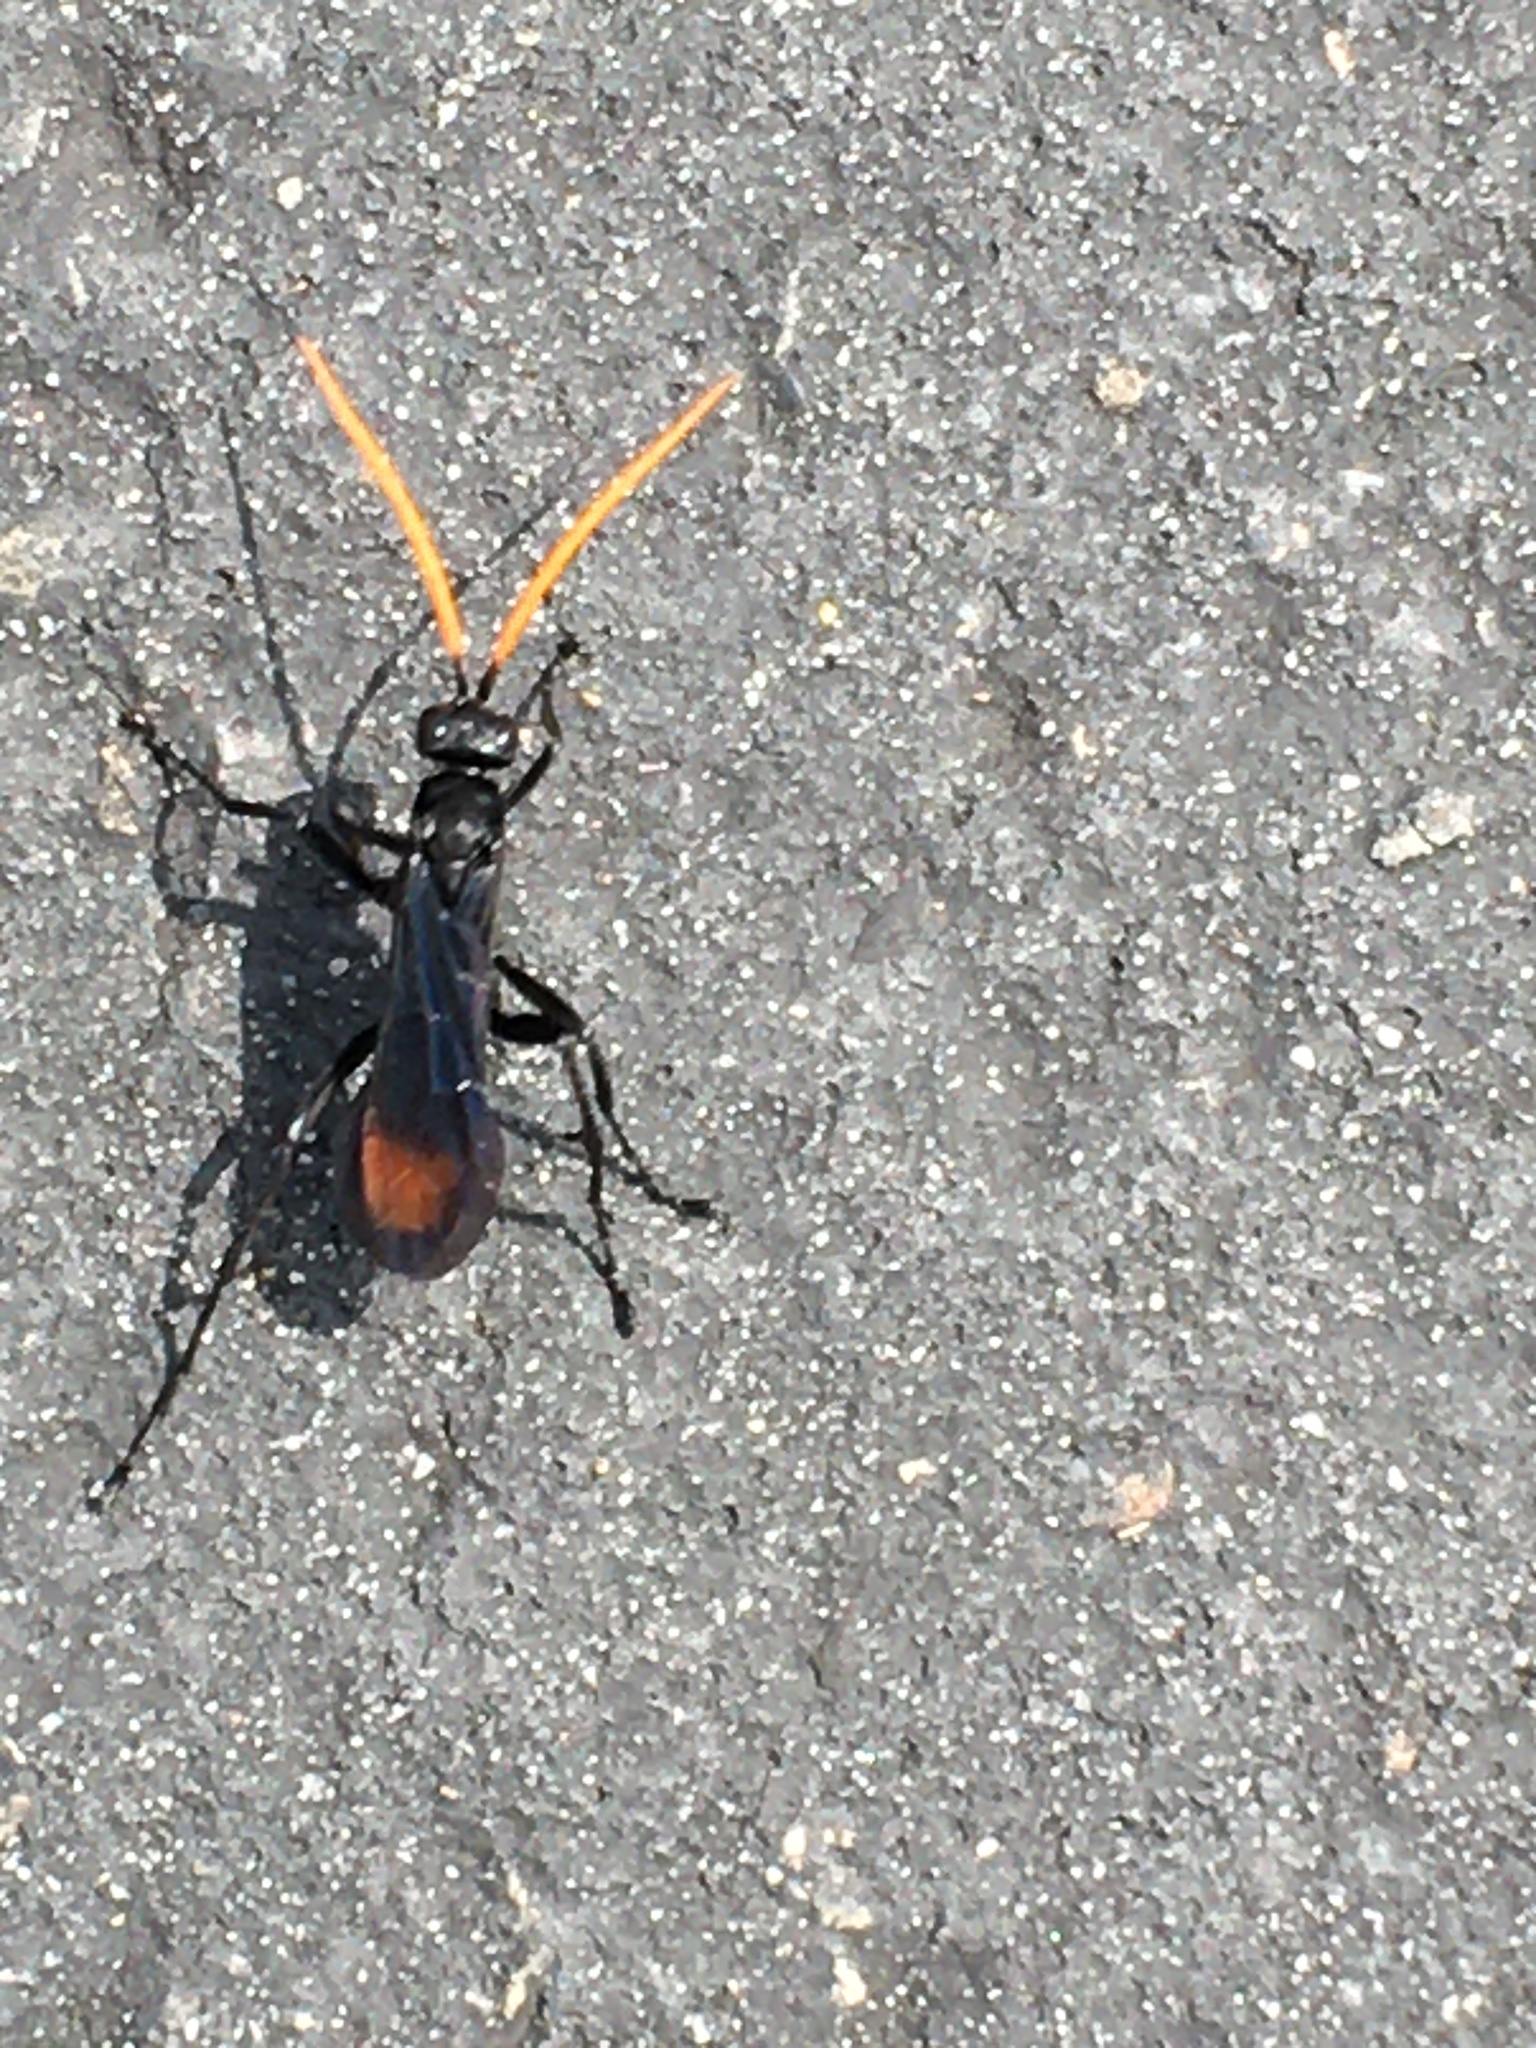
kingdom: Animalia
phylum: Arthropoda
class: Insecta
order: Hymenoptera
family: Pompilidae
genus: Entypus
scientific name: Entypus unifasciatus
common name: Eastern tawny-horned spider wasp
